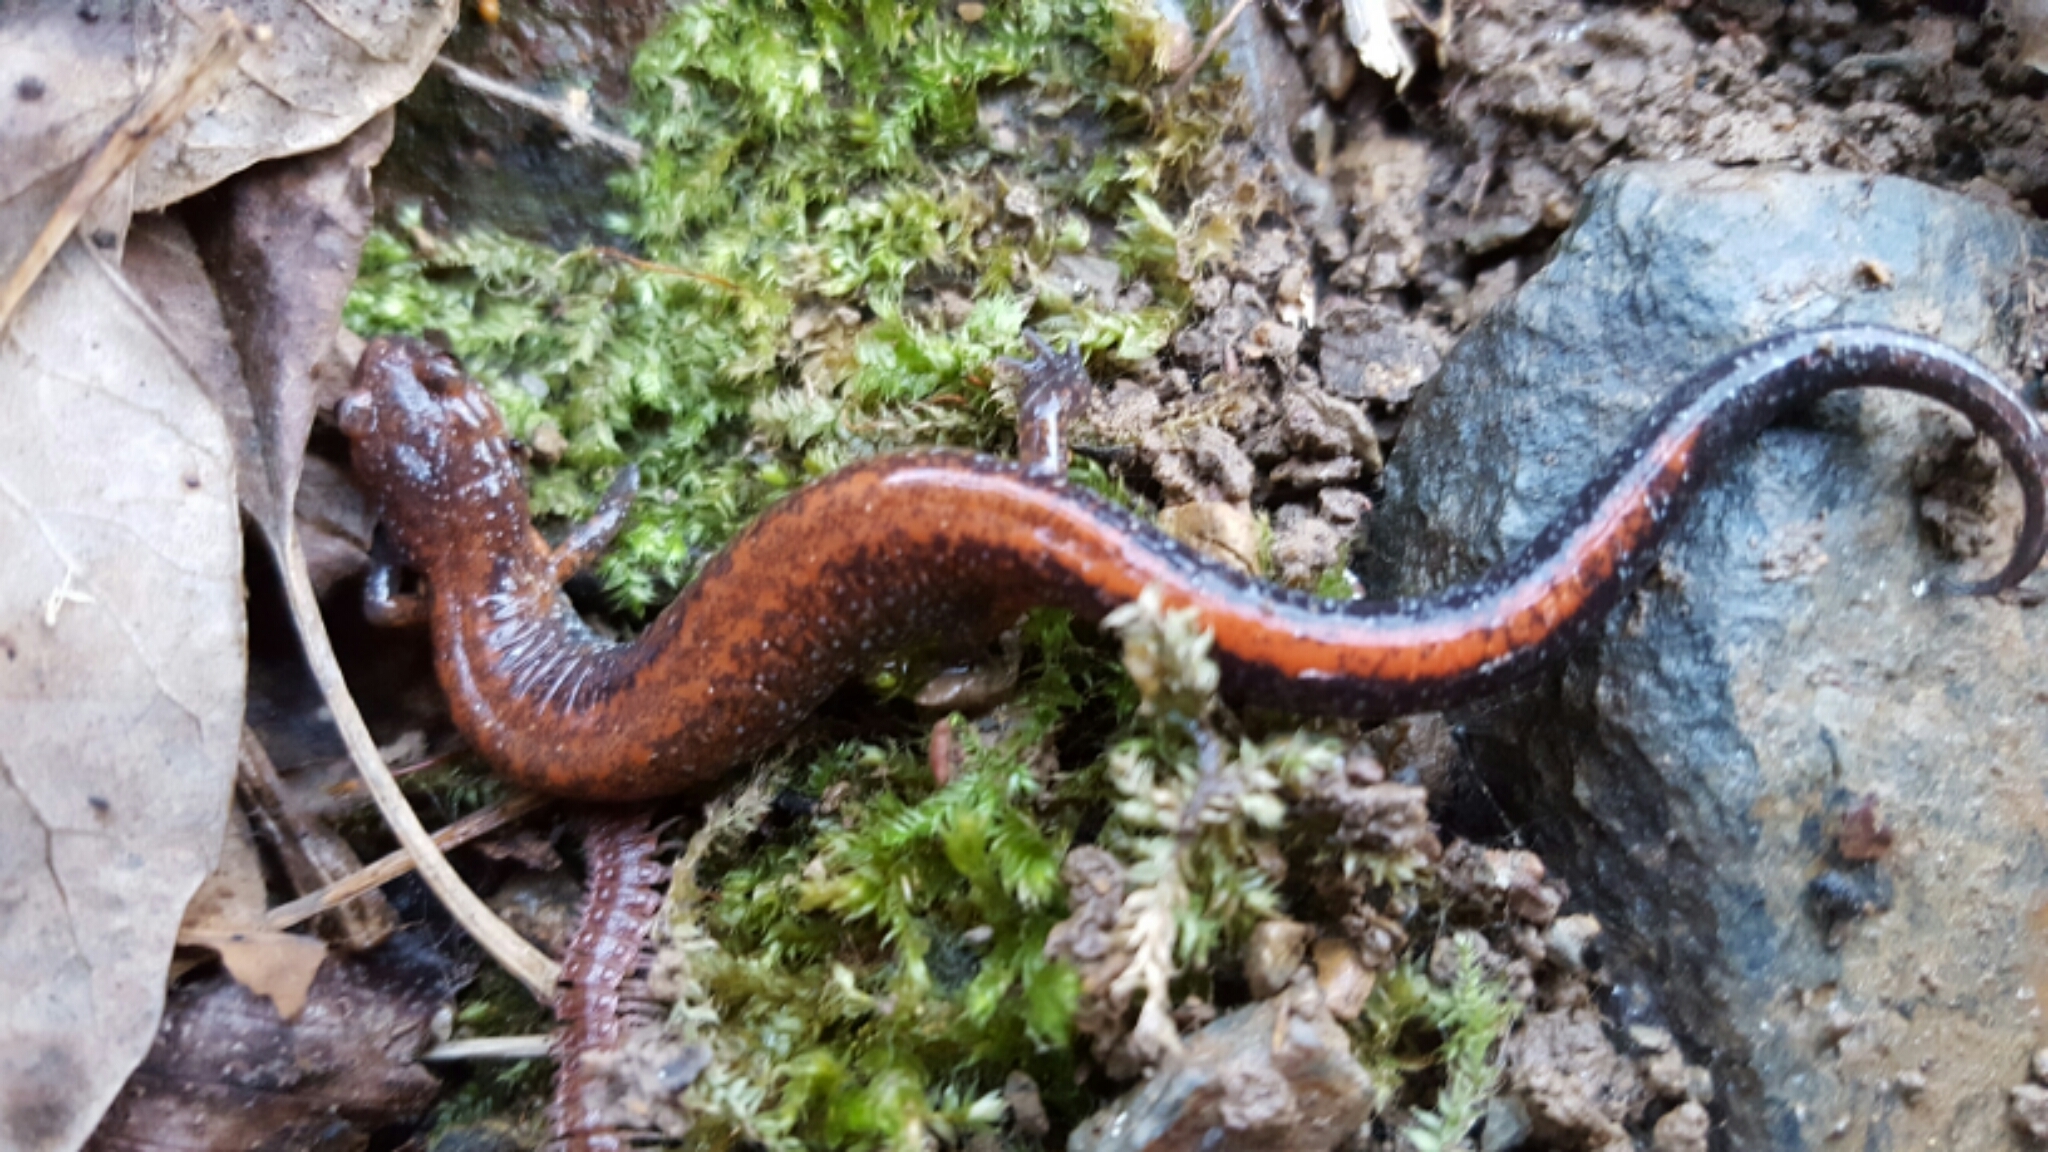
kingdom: Animalia
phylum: Chordata
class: Amphibia
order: Caudata
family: Plethodontidae
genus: Plethodon
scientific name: Plethodon serratus
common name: Southern red-backed salamander
